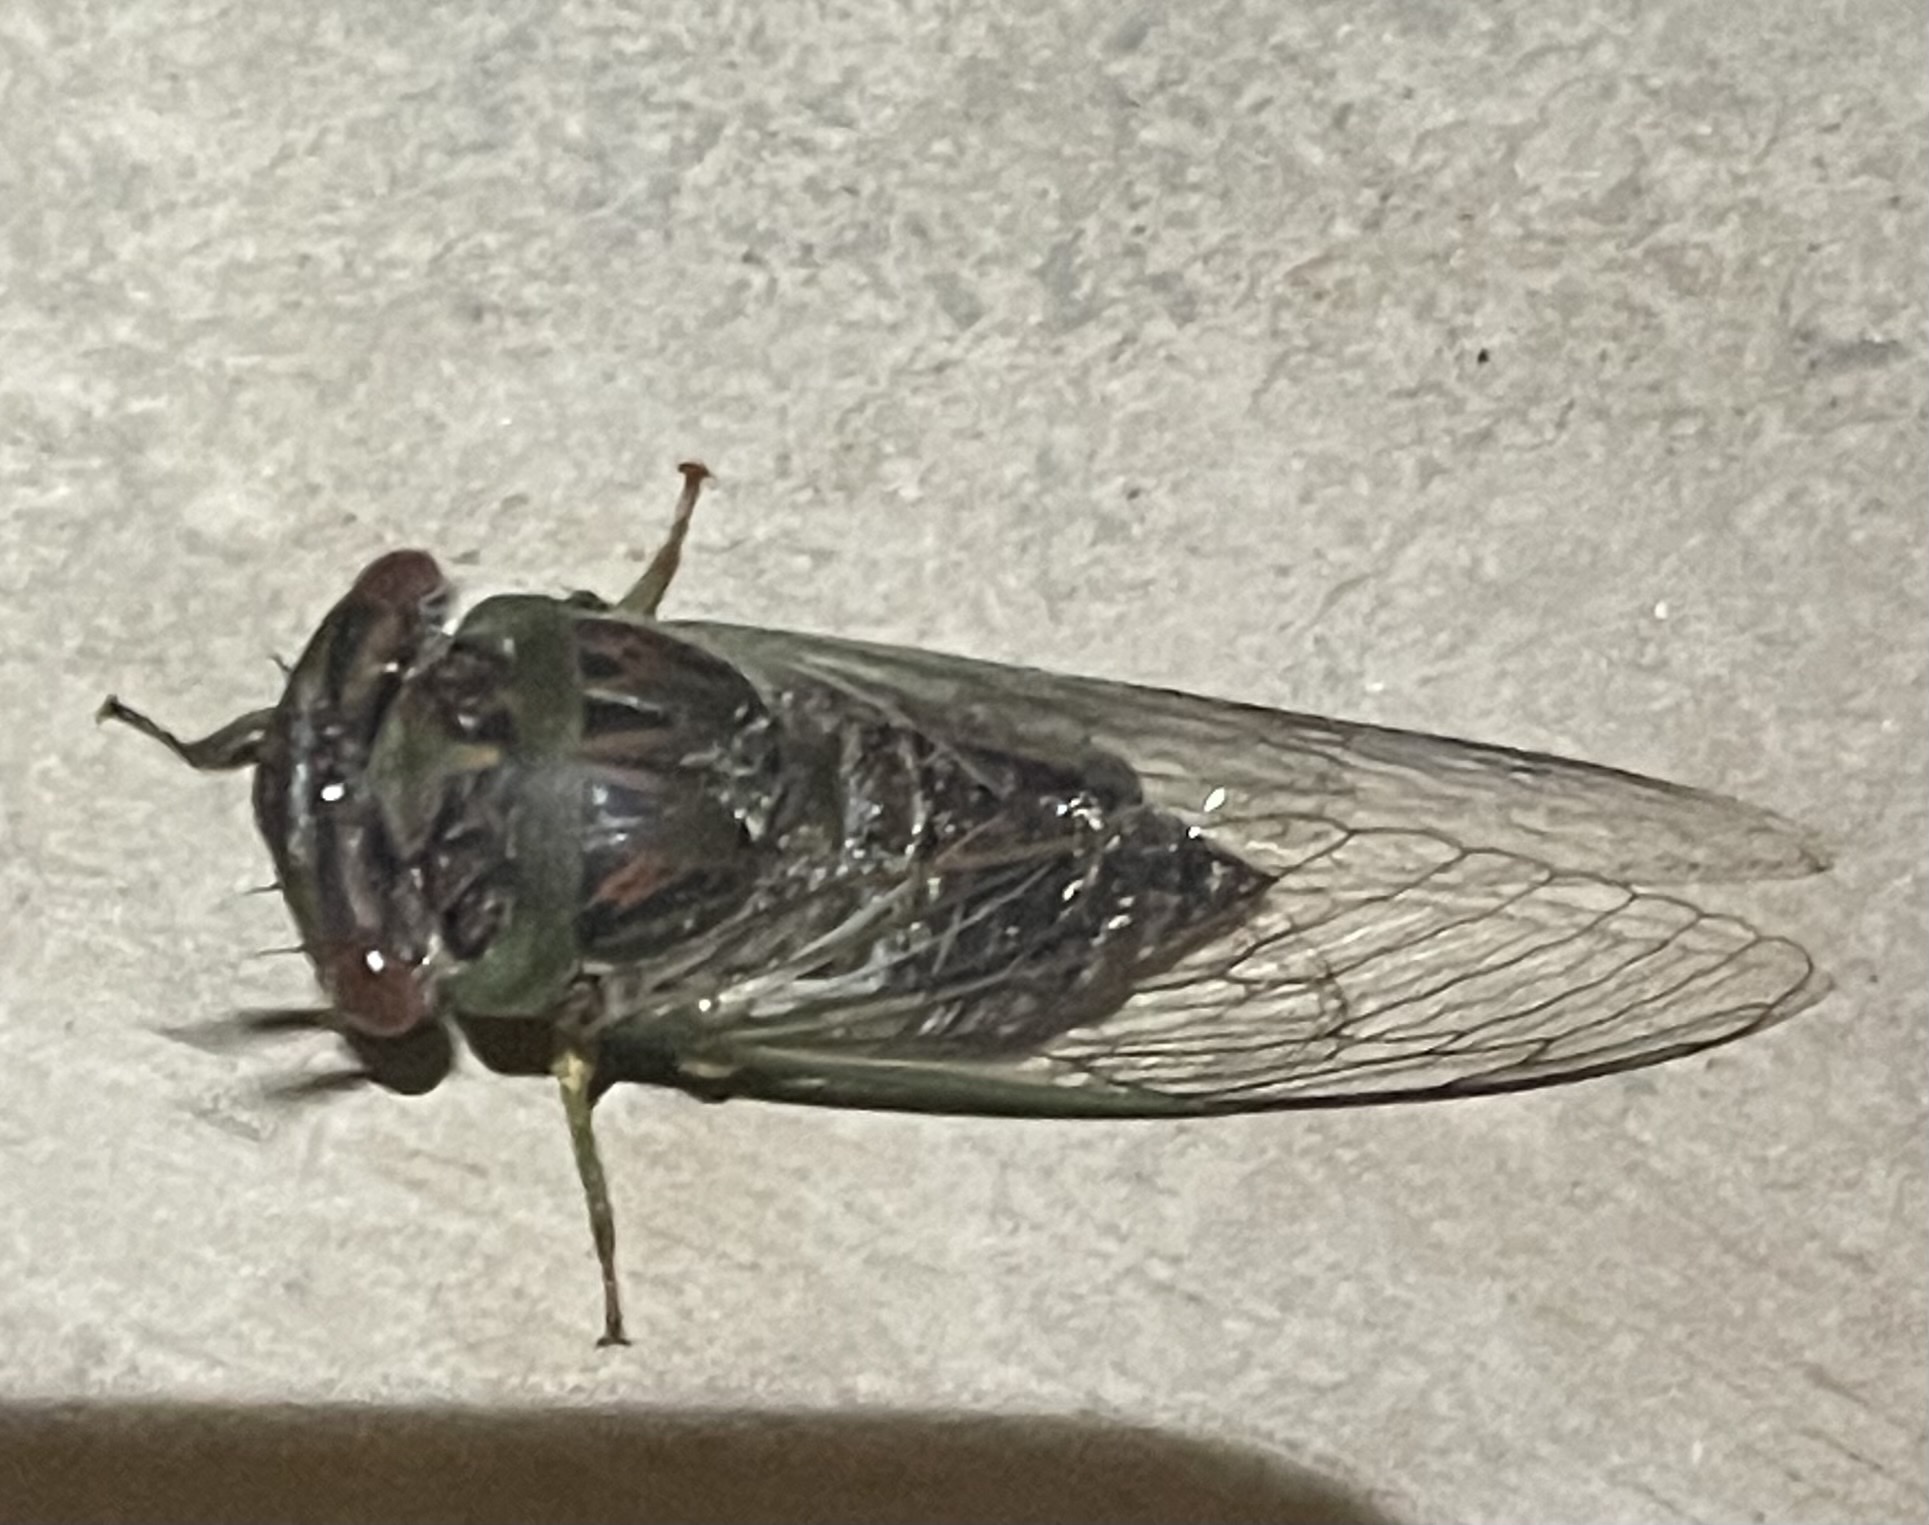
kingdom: Animalia
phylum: Arthropoda
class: Insecta
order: Hemiptera
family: Cicadidae
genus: Psaltoda
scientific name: Psaltoda claripennis
